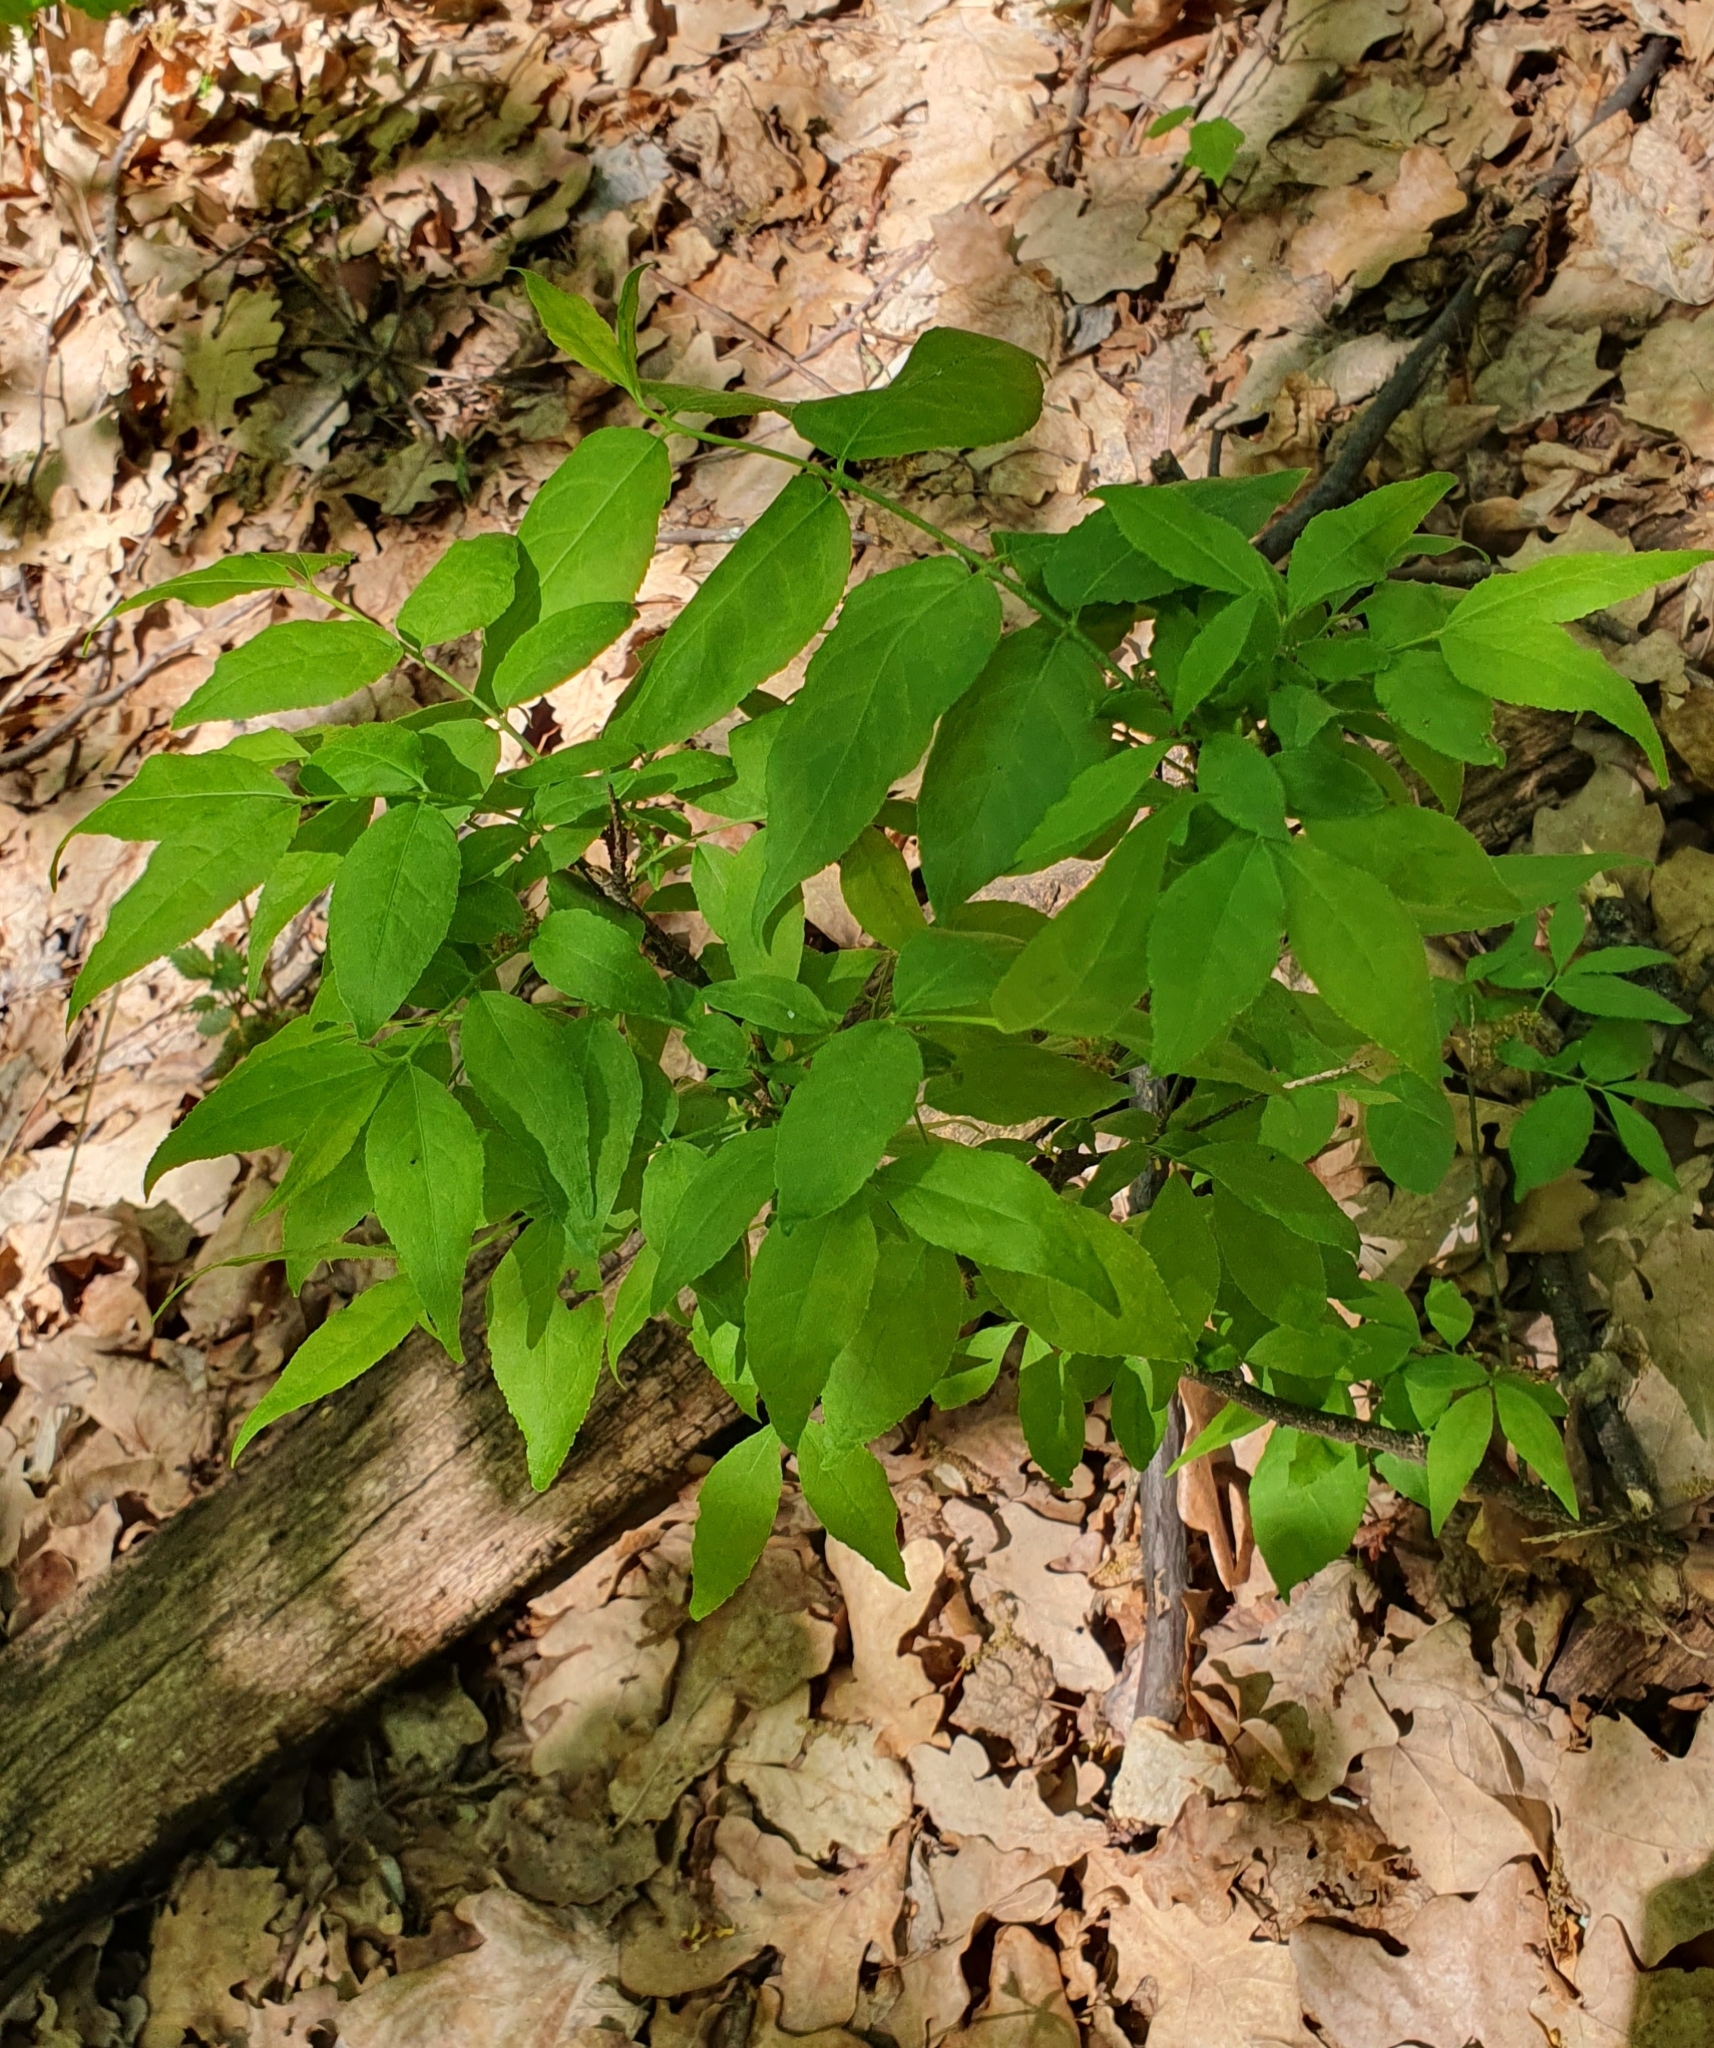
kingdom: Plantae
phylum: Tracheophyta
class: Magnoliopsida
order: Celastrales
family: Celastraceae
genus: Euonymus
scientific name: Euonymus verrucosus
